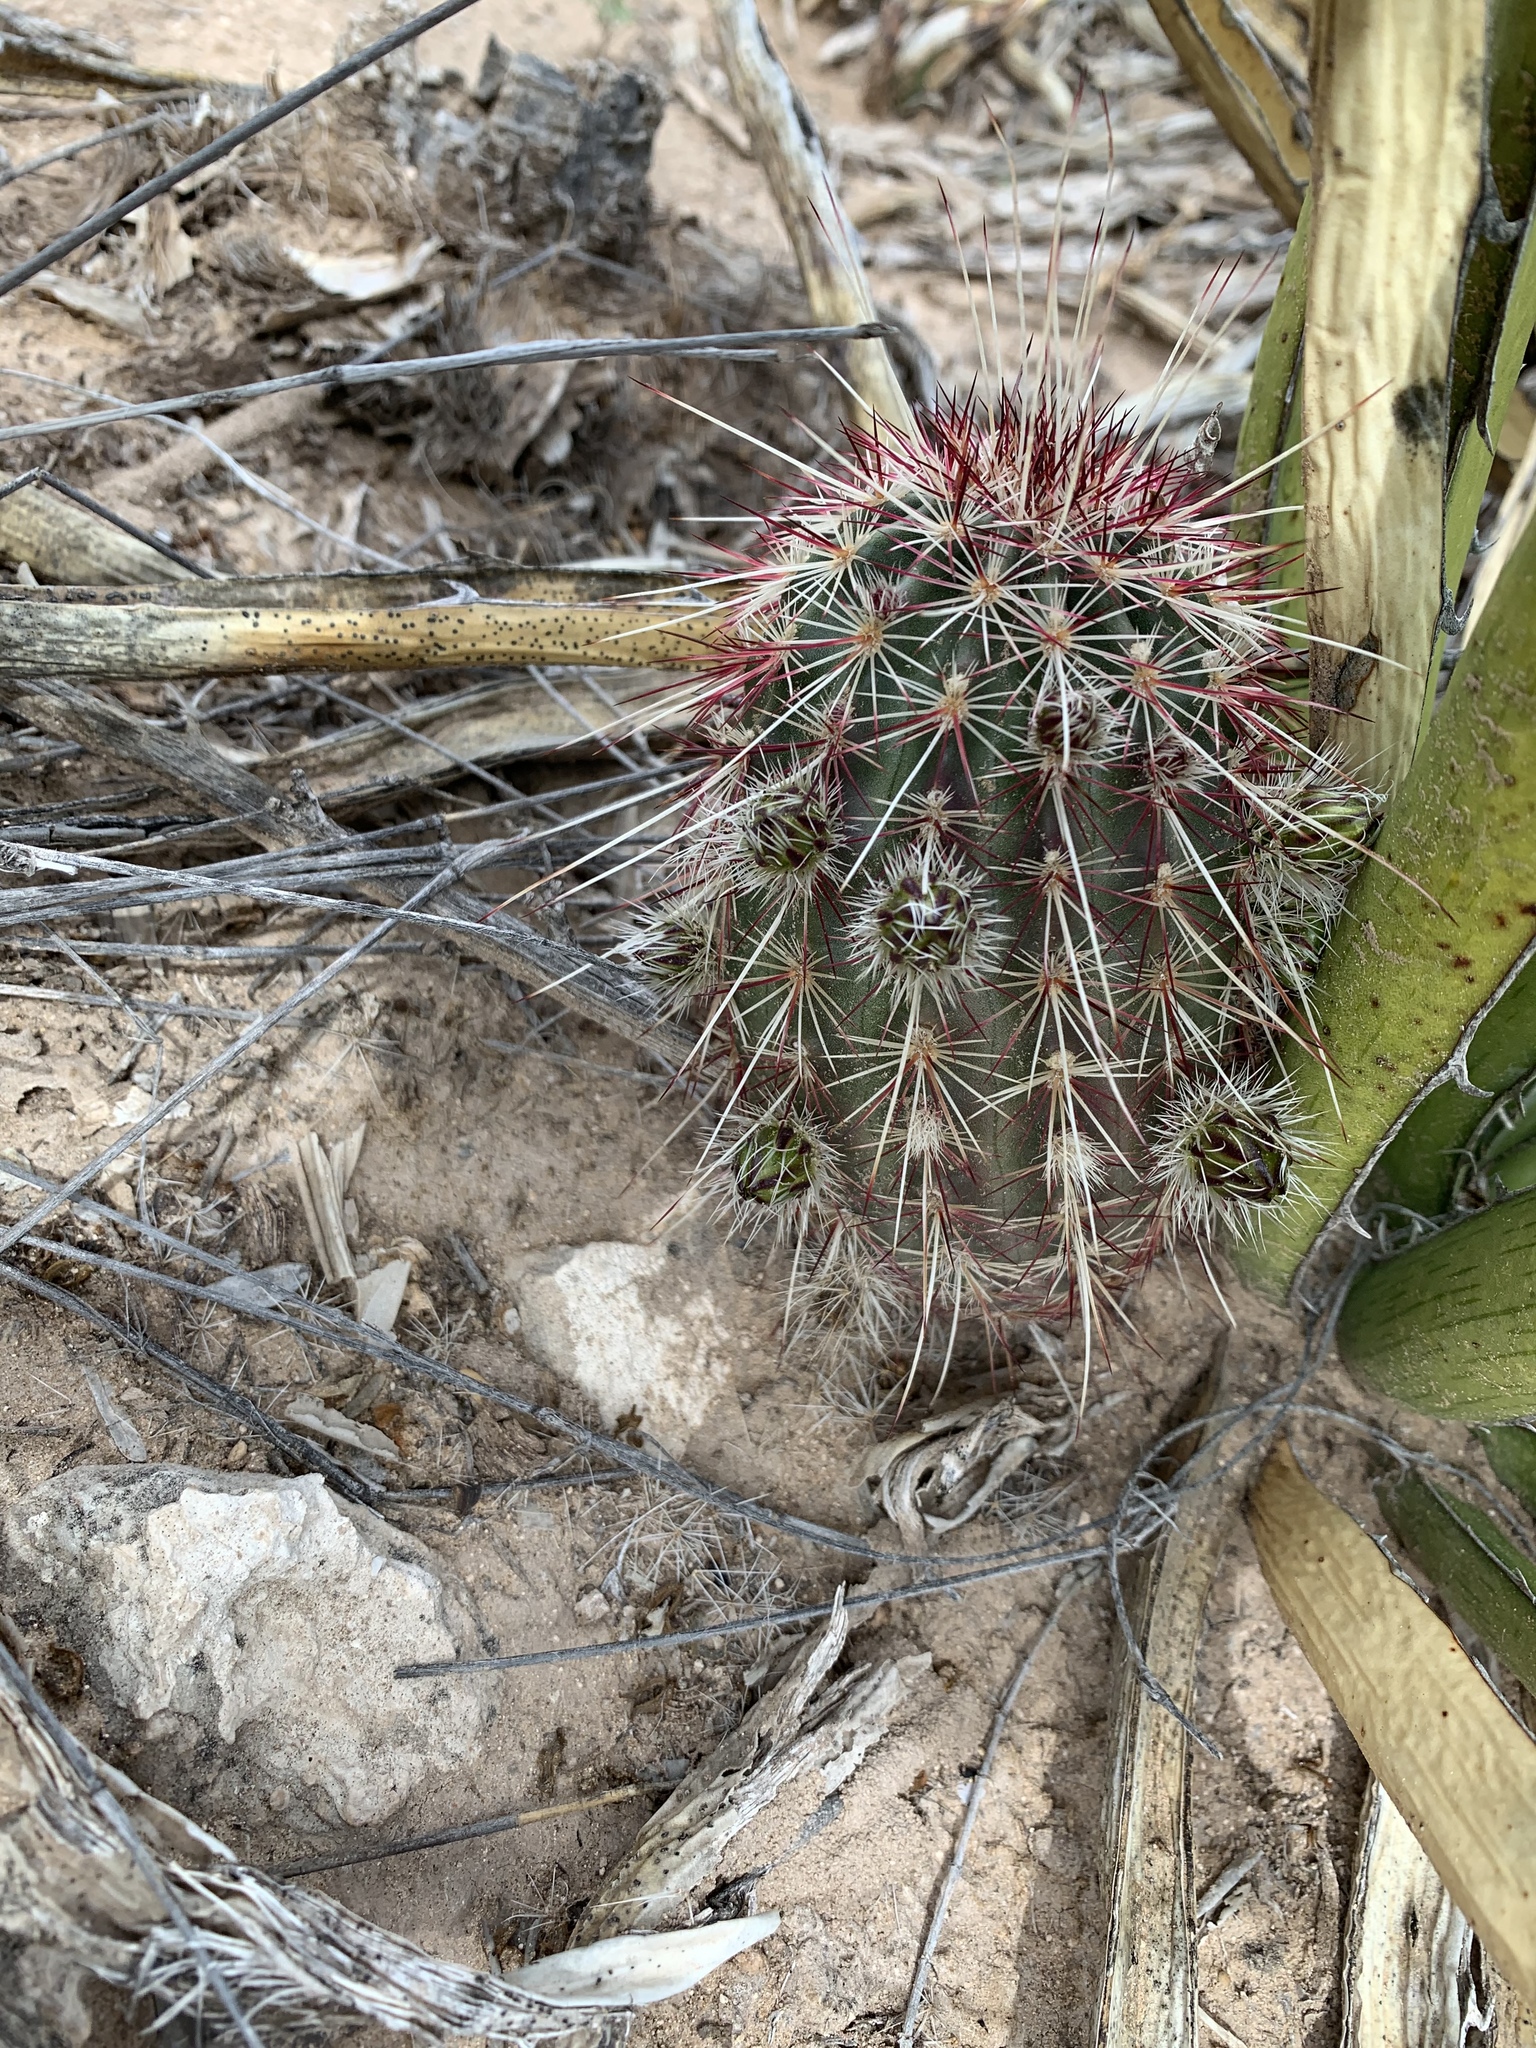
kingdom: Plantae
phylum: Tracheophyta
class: Magnoliopsida
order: Caryophyllales
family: Cactaceae
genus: Echinocereus
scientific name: Echinocereus viridiflorus
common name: Nylon hedgehog cactus
